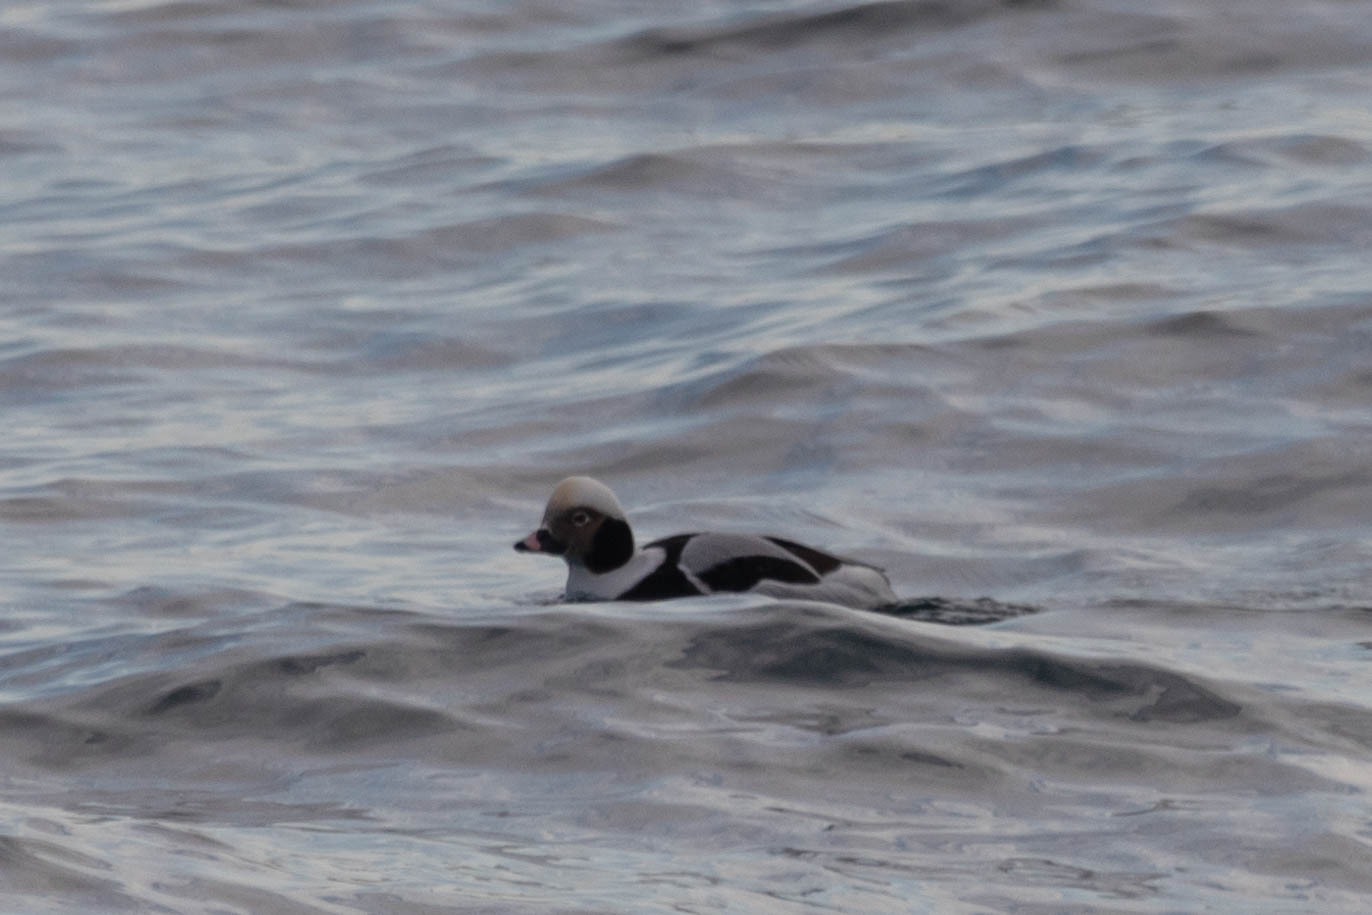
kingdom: Animalia
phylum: Chordata
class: Aves
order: Anseriformes
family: Anatidae
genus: Clangula
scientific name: Clangula hyemalis
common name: Long-tailed duck
